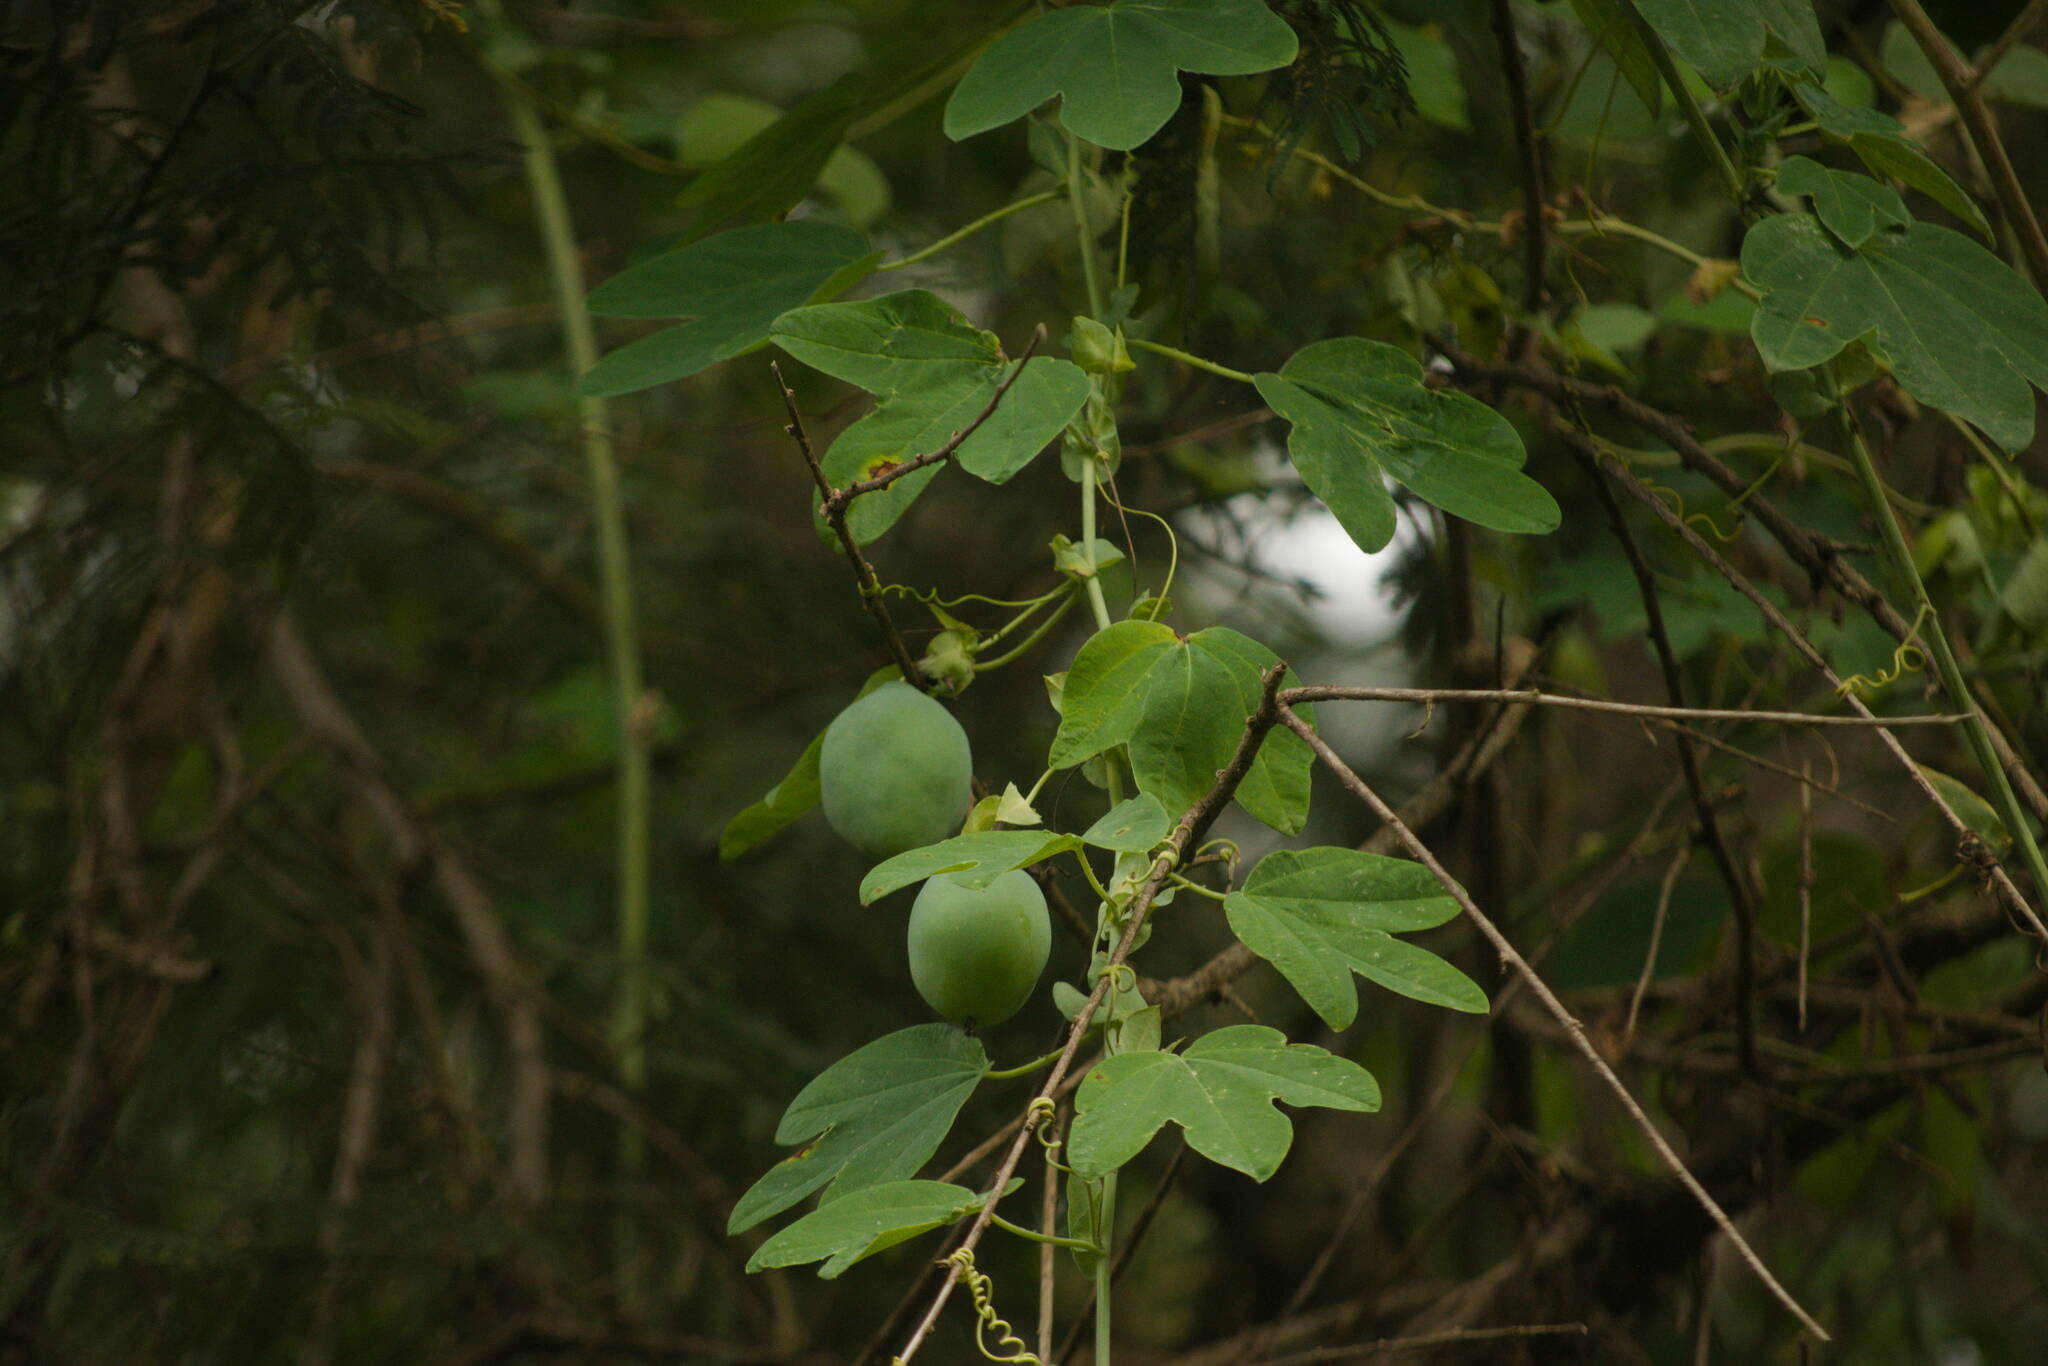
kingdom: Plantae
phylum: Tracheophyta
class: Magnoliopsida
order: Malpighiales
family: Passifloraceae
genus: Passiflora
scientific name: Passiflora subpeltata
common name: White passionflower
